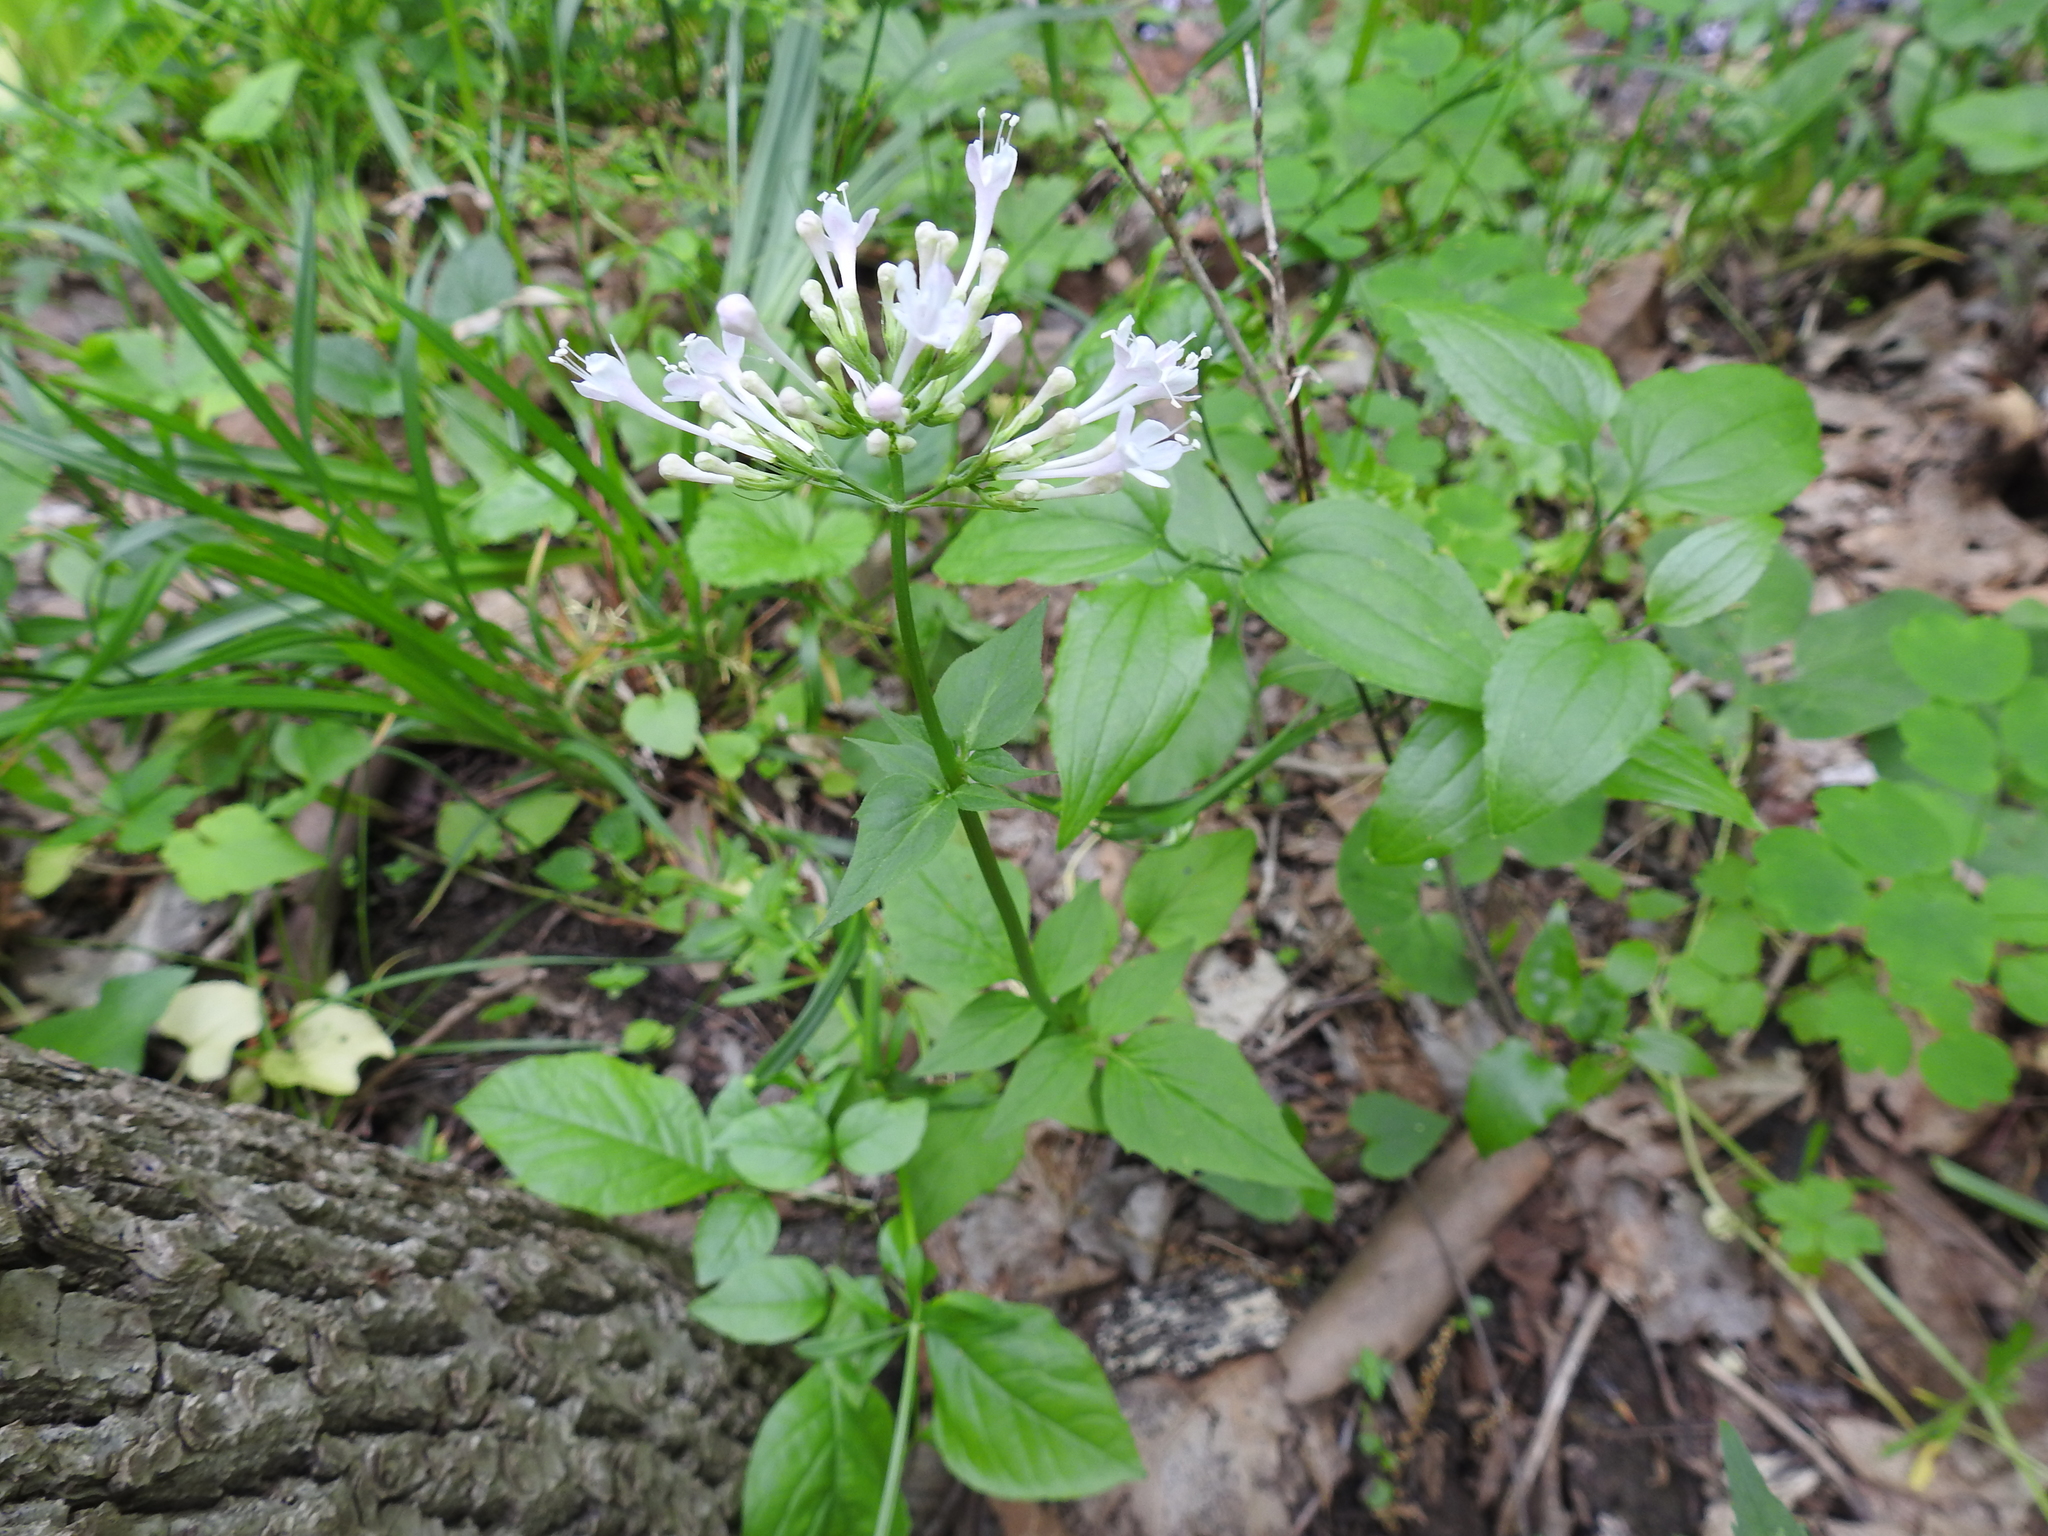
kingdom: Plantae
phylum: Tracheophyta
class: Magnoliopsida
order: Dipsacales
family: Caprifoliaceae
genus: Valeriana
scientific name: Valeriana pauciflora
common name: Long-tube valeriana
